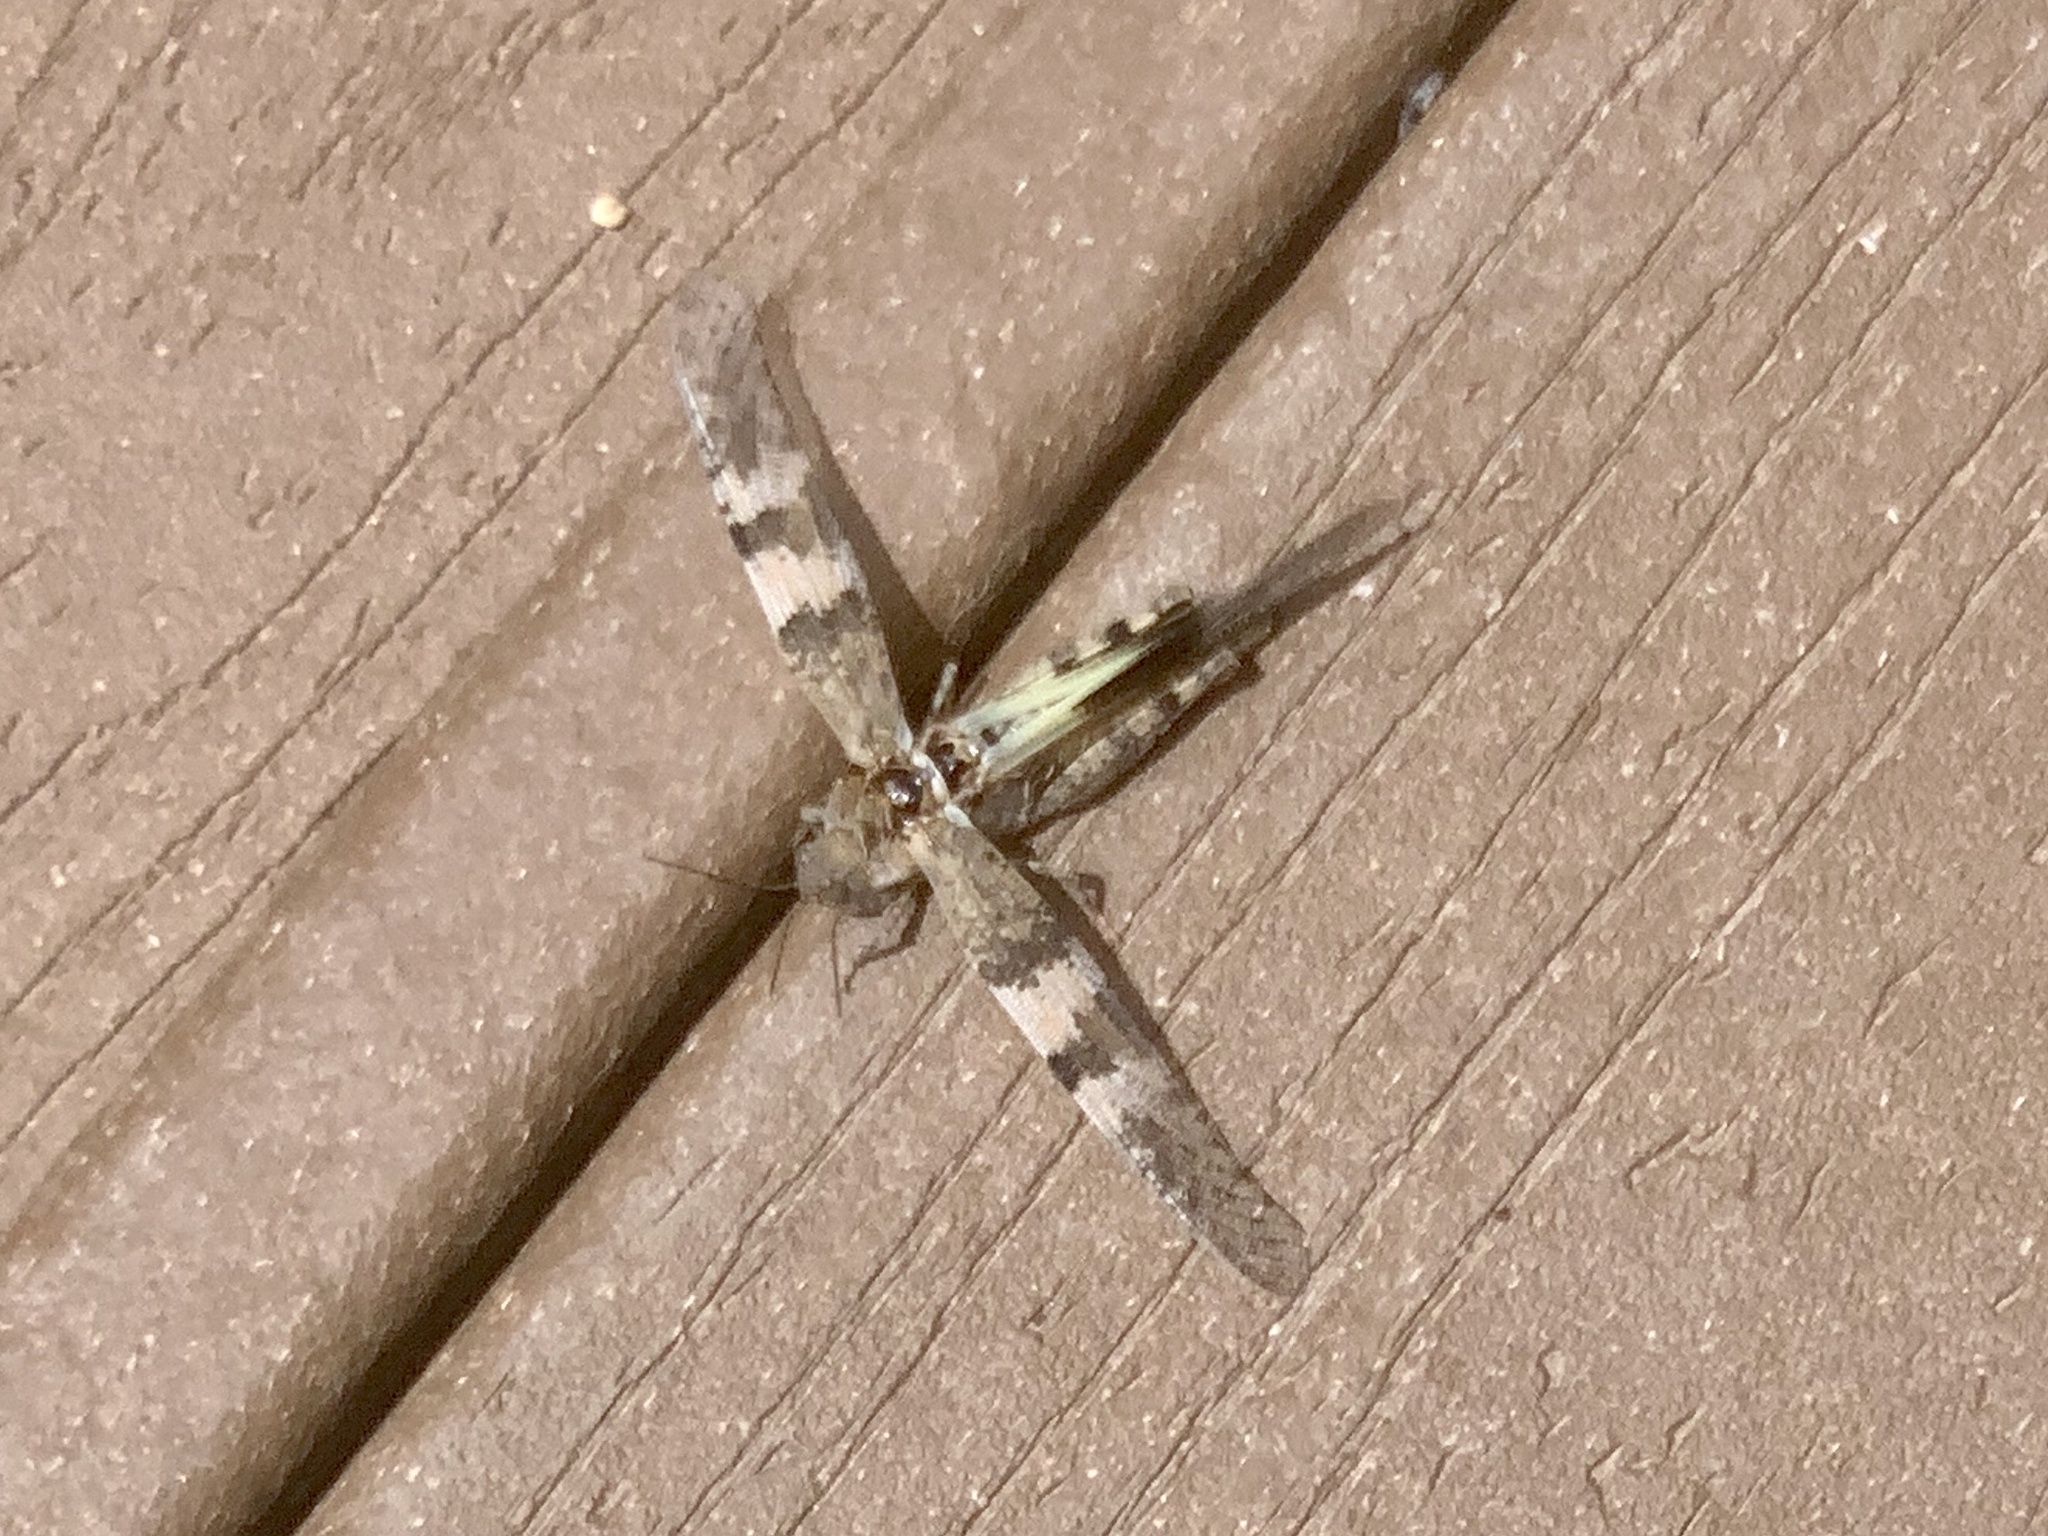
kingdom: Animalia
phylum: Arthropoda
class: Insecta
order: Orthoptera
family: Acrididae
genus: Trimerotropis
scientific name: Trimerotropis pallidipennis
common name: Pallid-winged grasshopper
